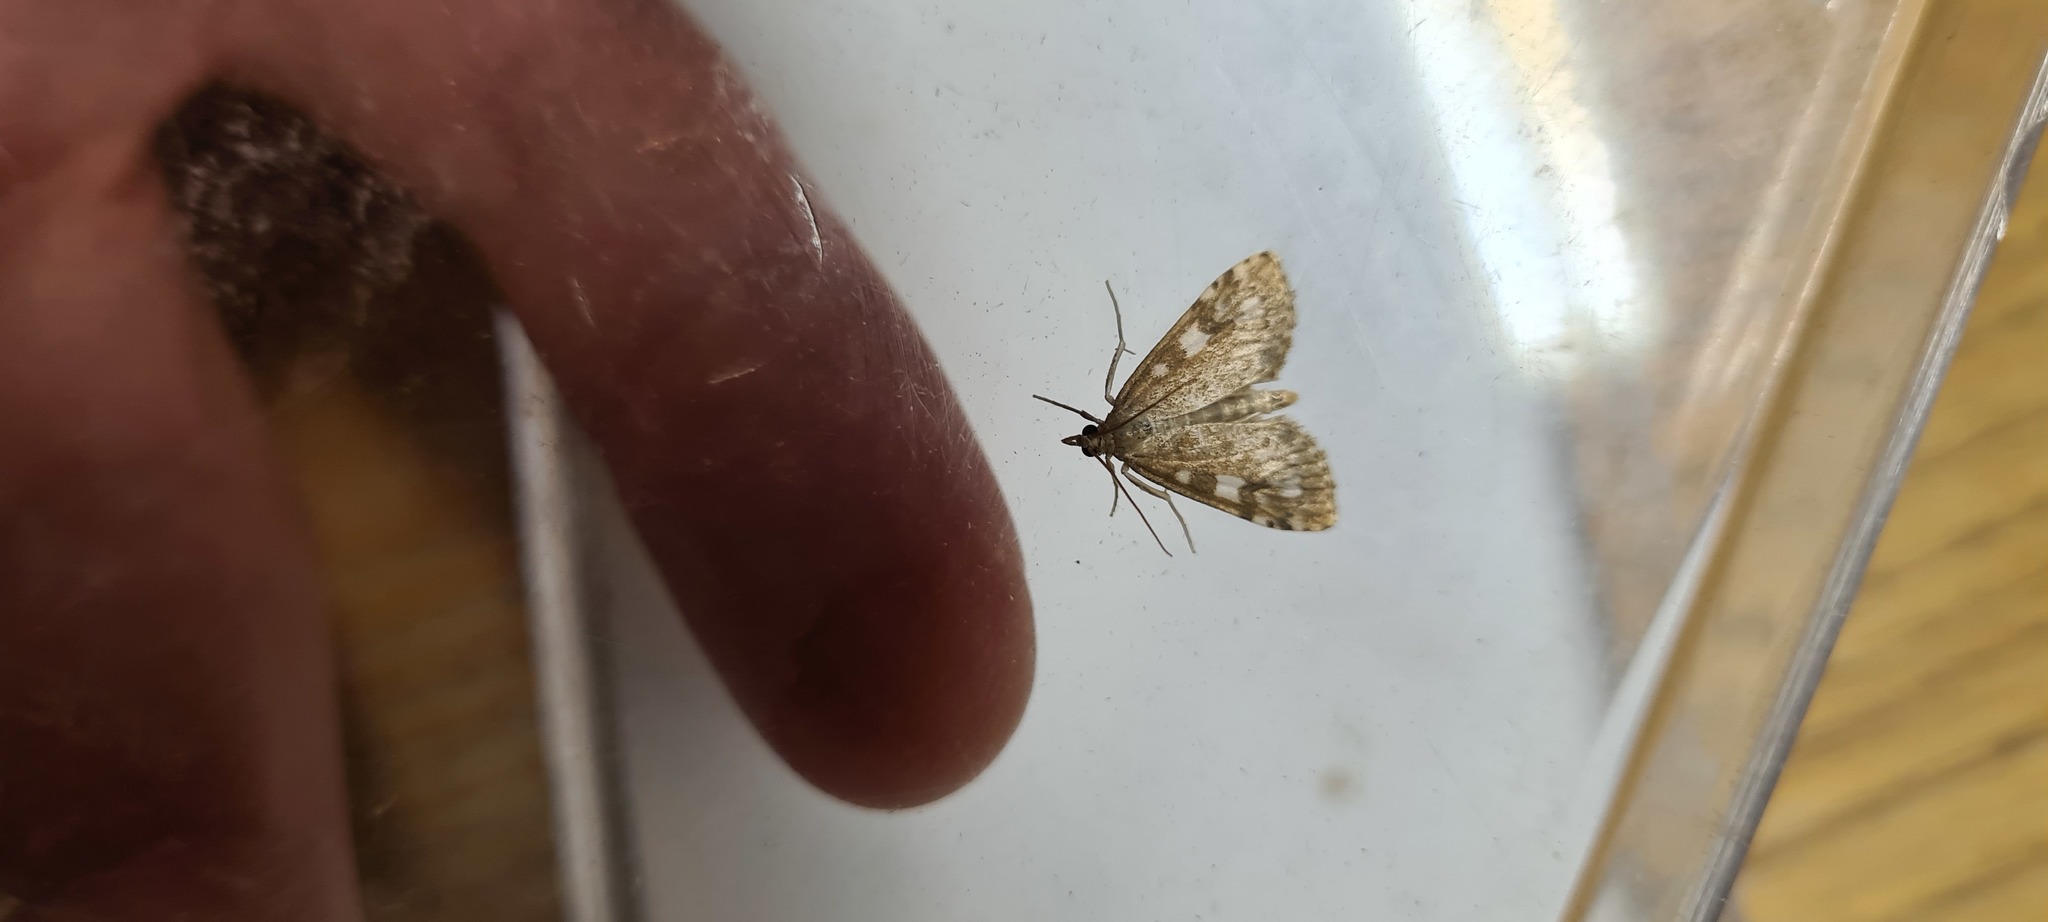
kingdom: Animalia
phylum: Arthropoda
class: Insecta
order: Lepidoptera
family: Crambidae
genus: Udea
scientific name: Udea olivalis
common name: Olive pearl
